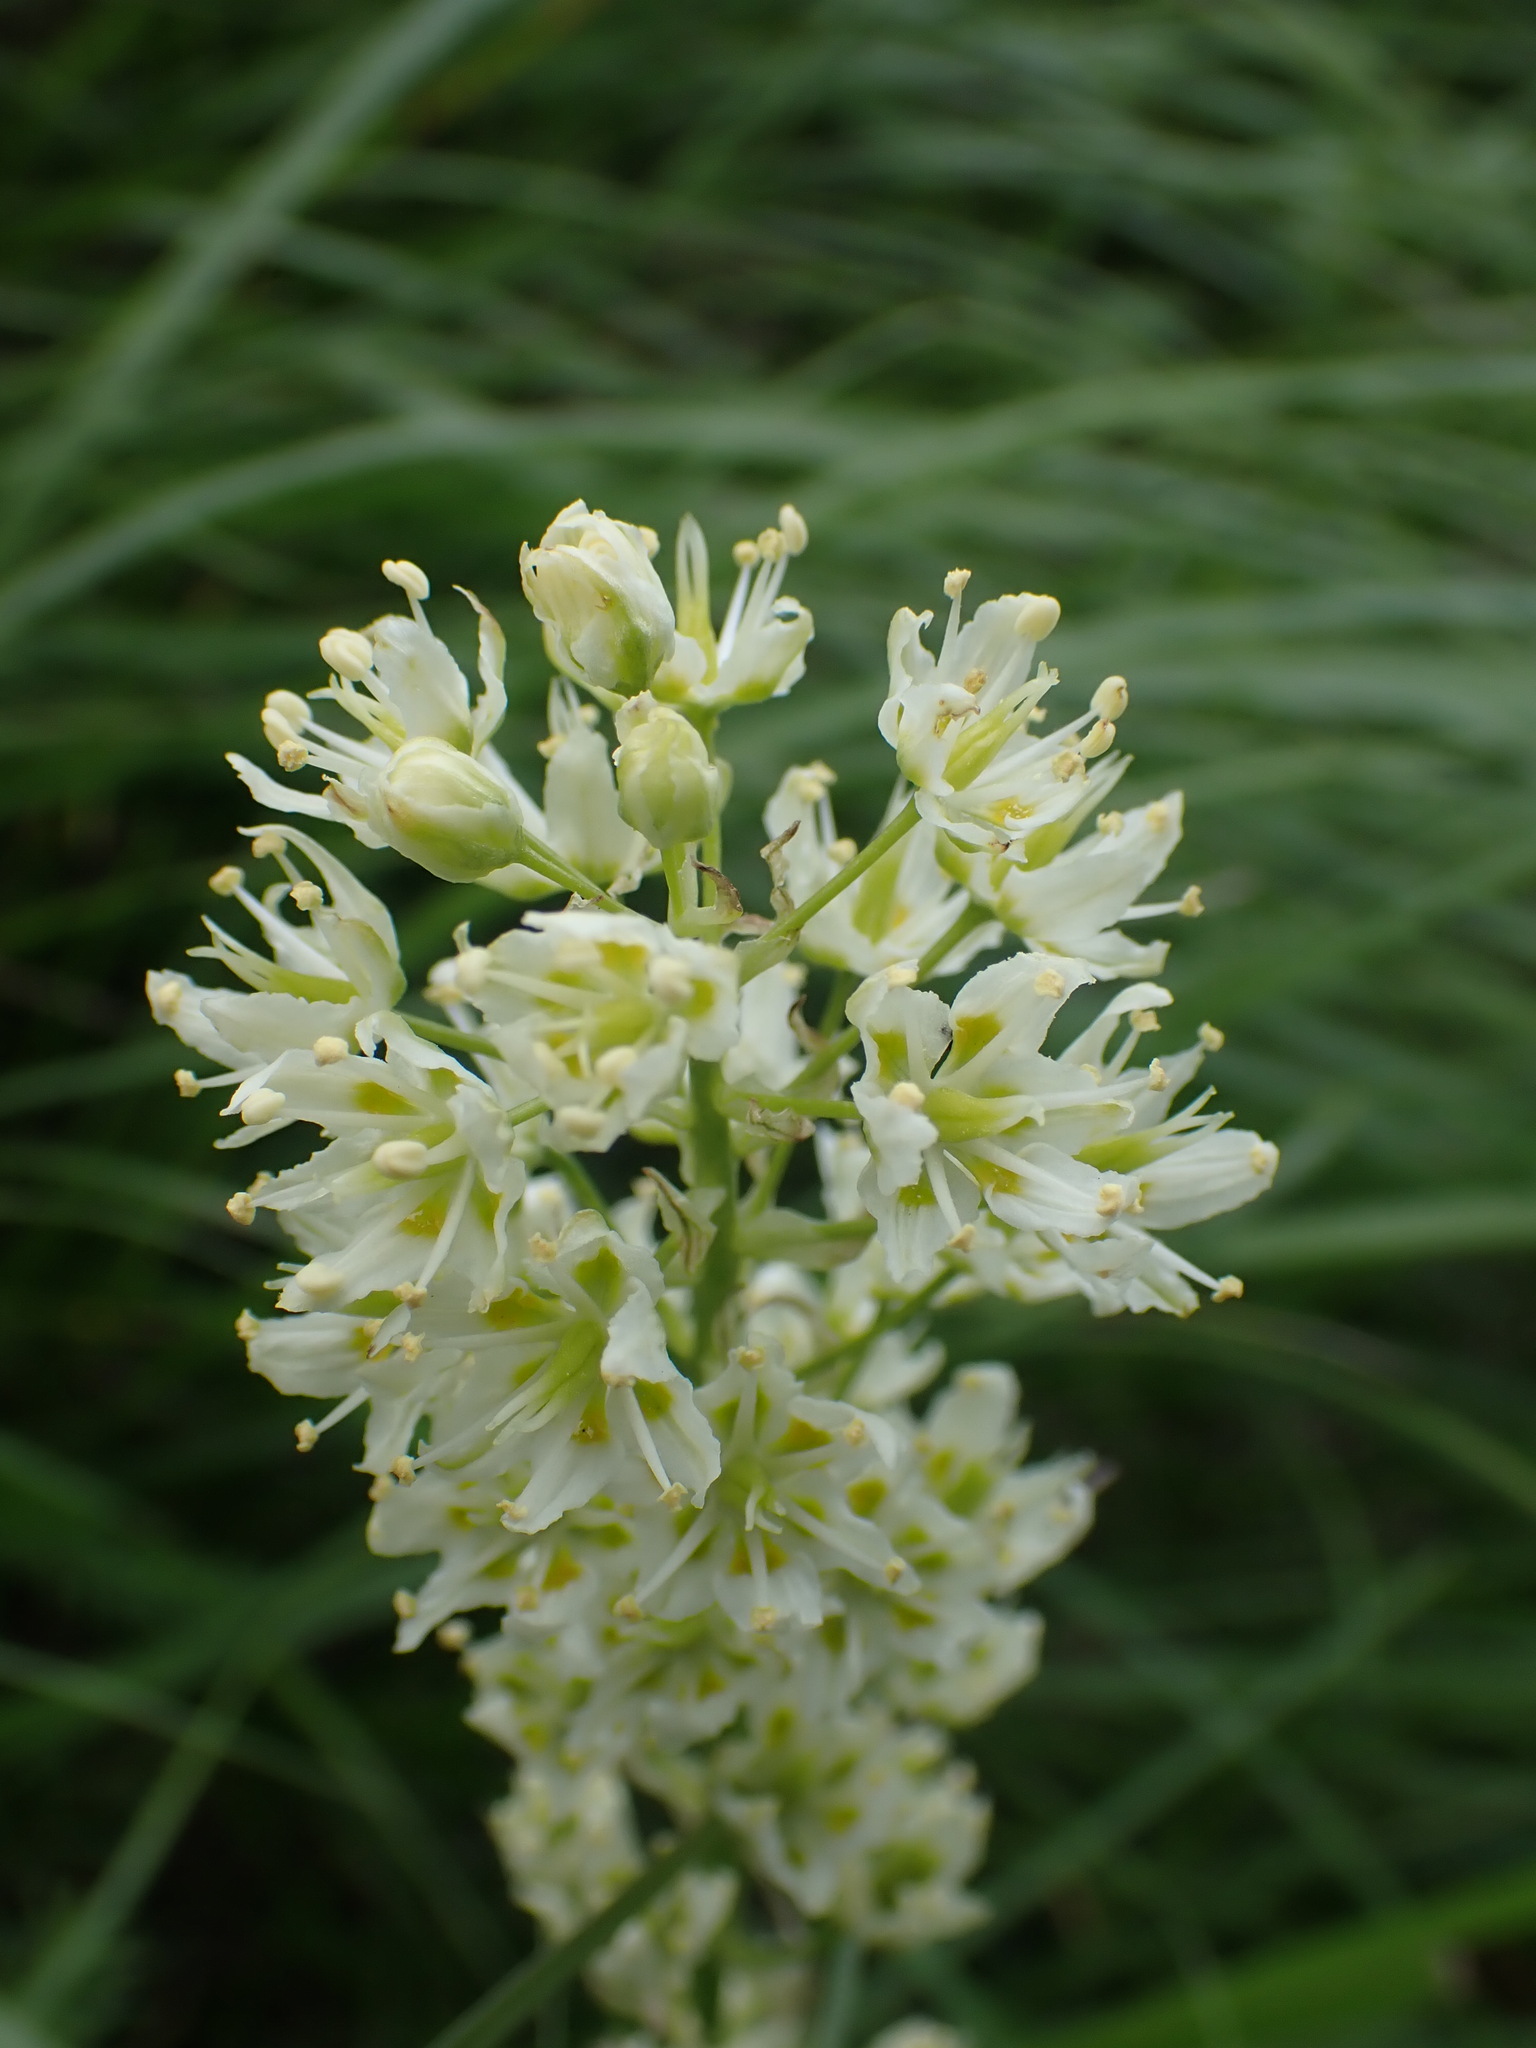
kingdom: Plantae
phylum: Tracheophyta
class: Liliopsida
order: Liliales
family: Melanthiaceae
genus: Toxicoscordion
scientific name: Toxicoscordion venenosum
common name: Meadow death camas
